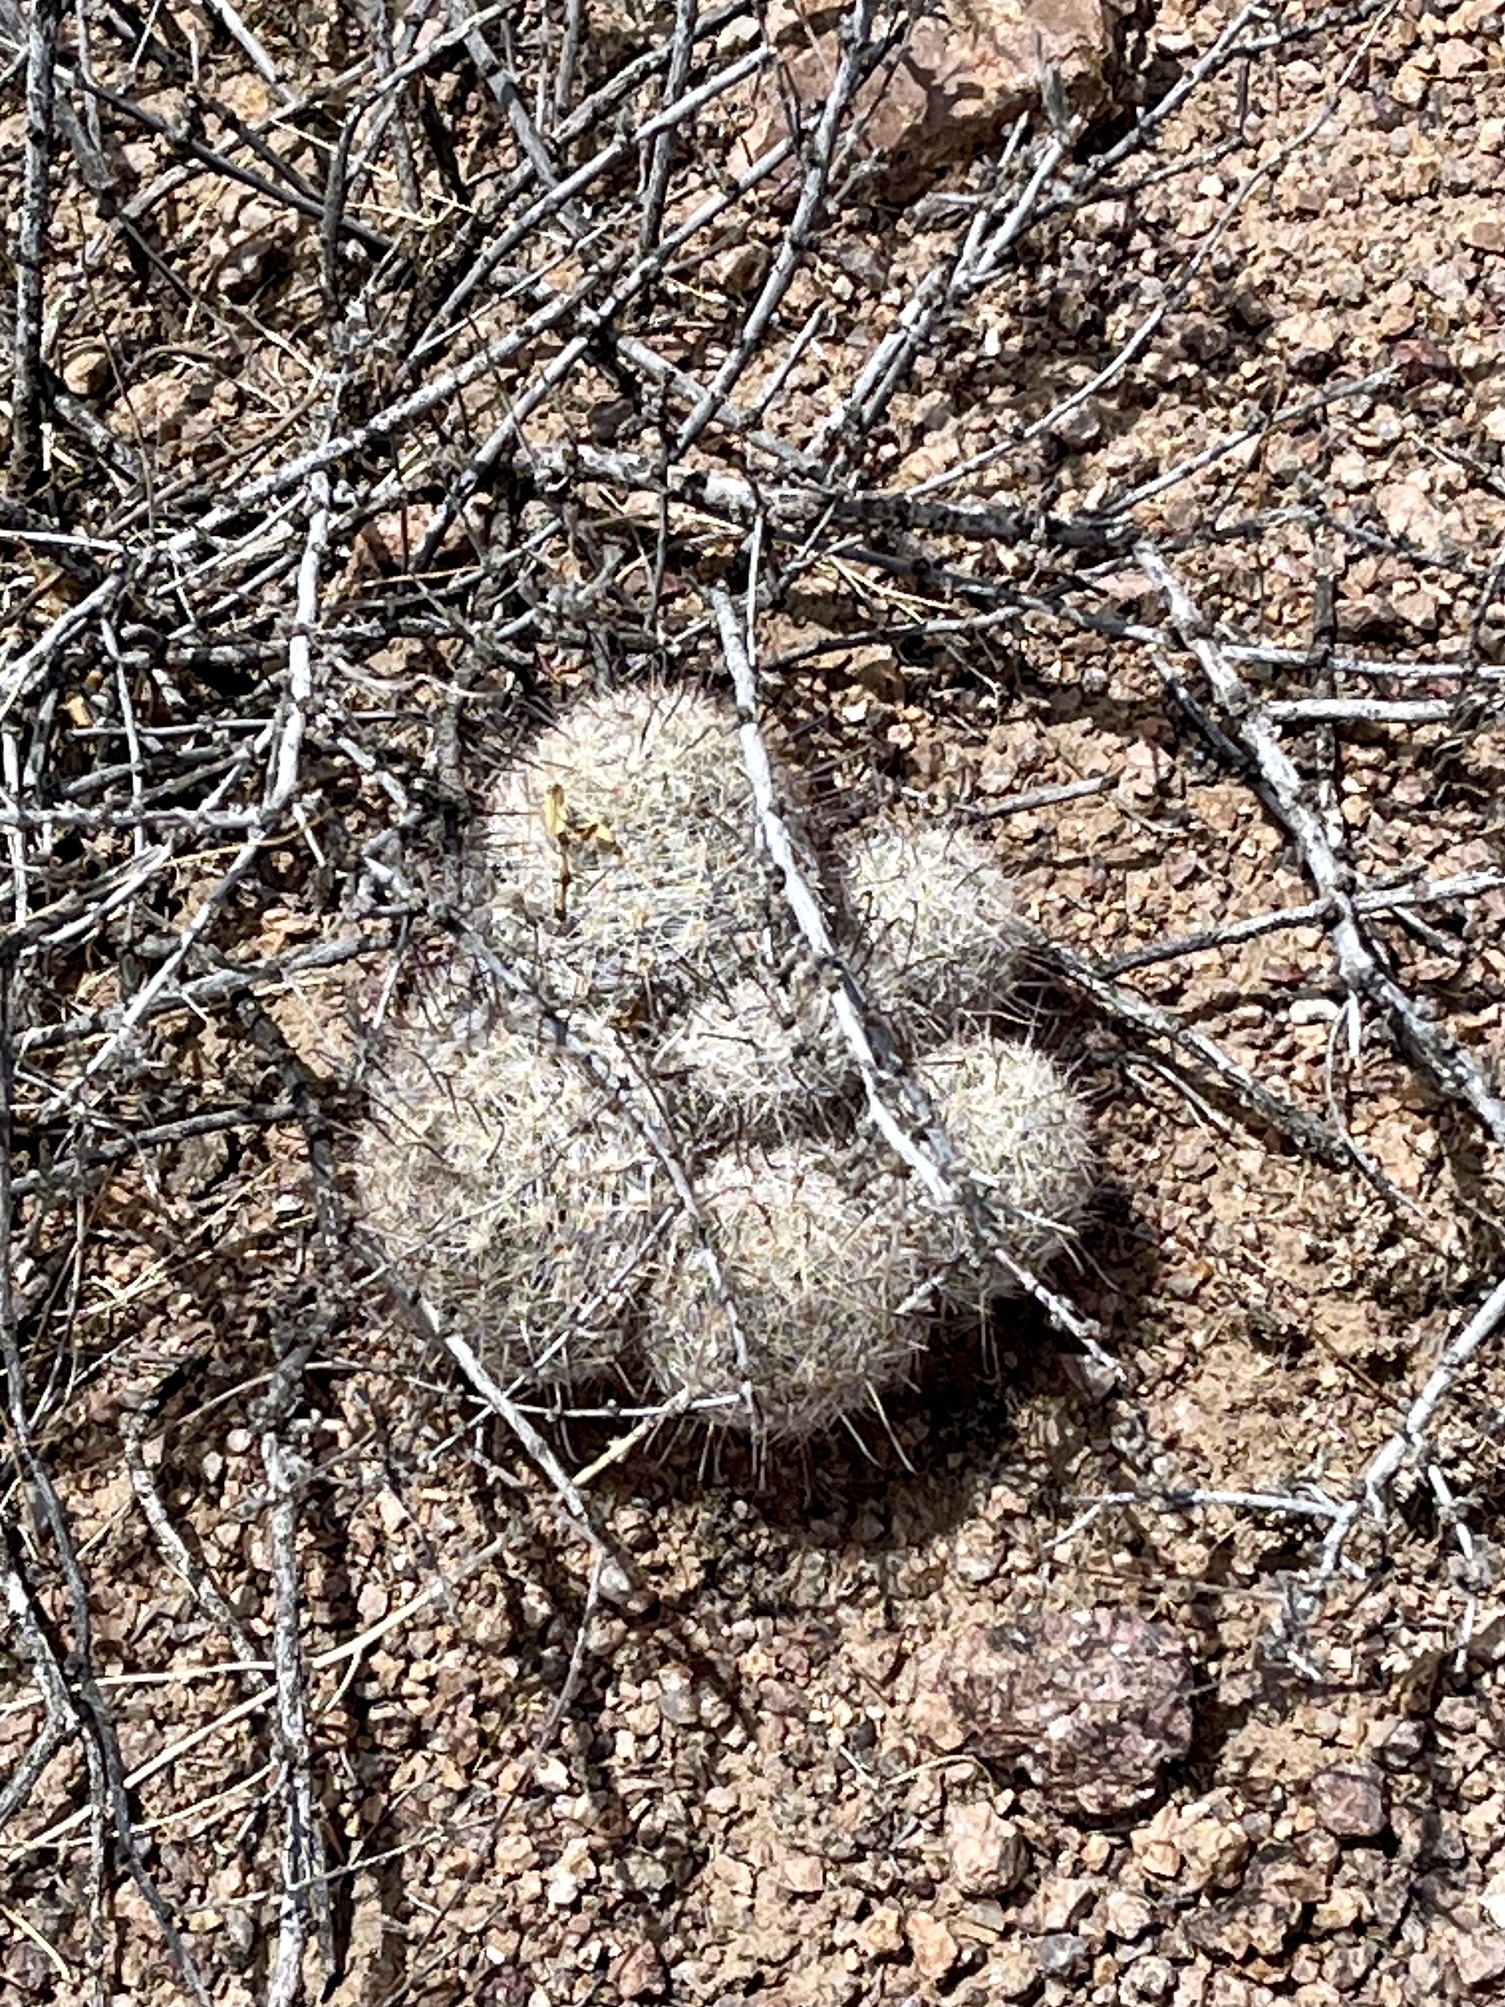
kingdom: Plantae
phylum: Tracheophyta
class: Magnoliopsida
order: Caryophyllales
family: Cactaceae
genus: Cochemiea
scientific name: Cochemiea grahamii
